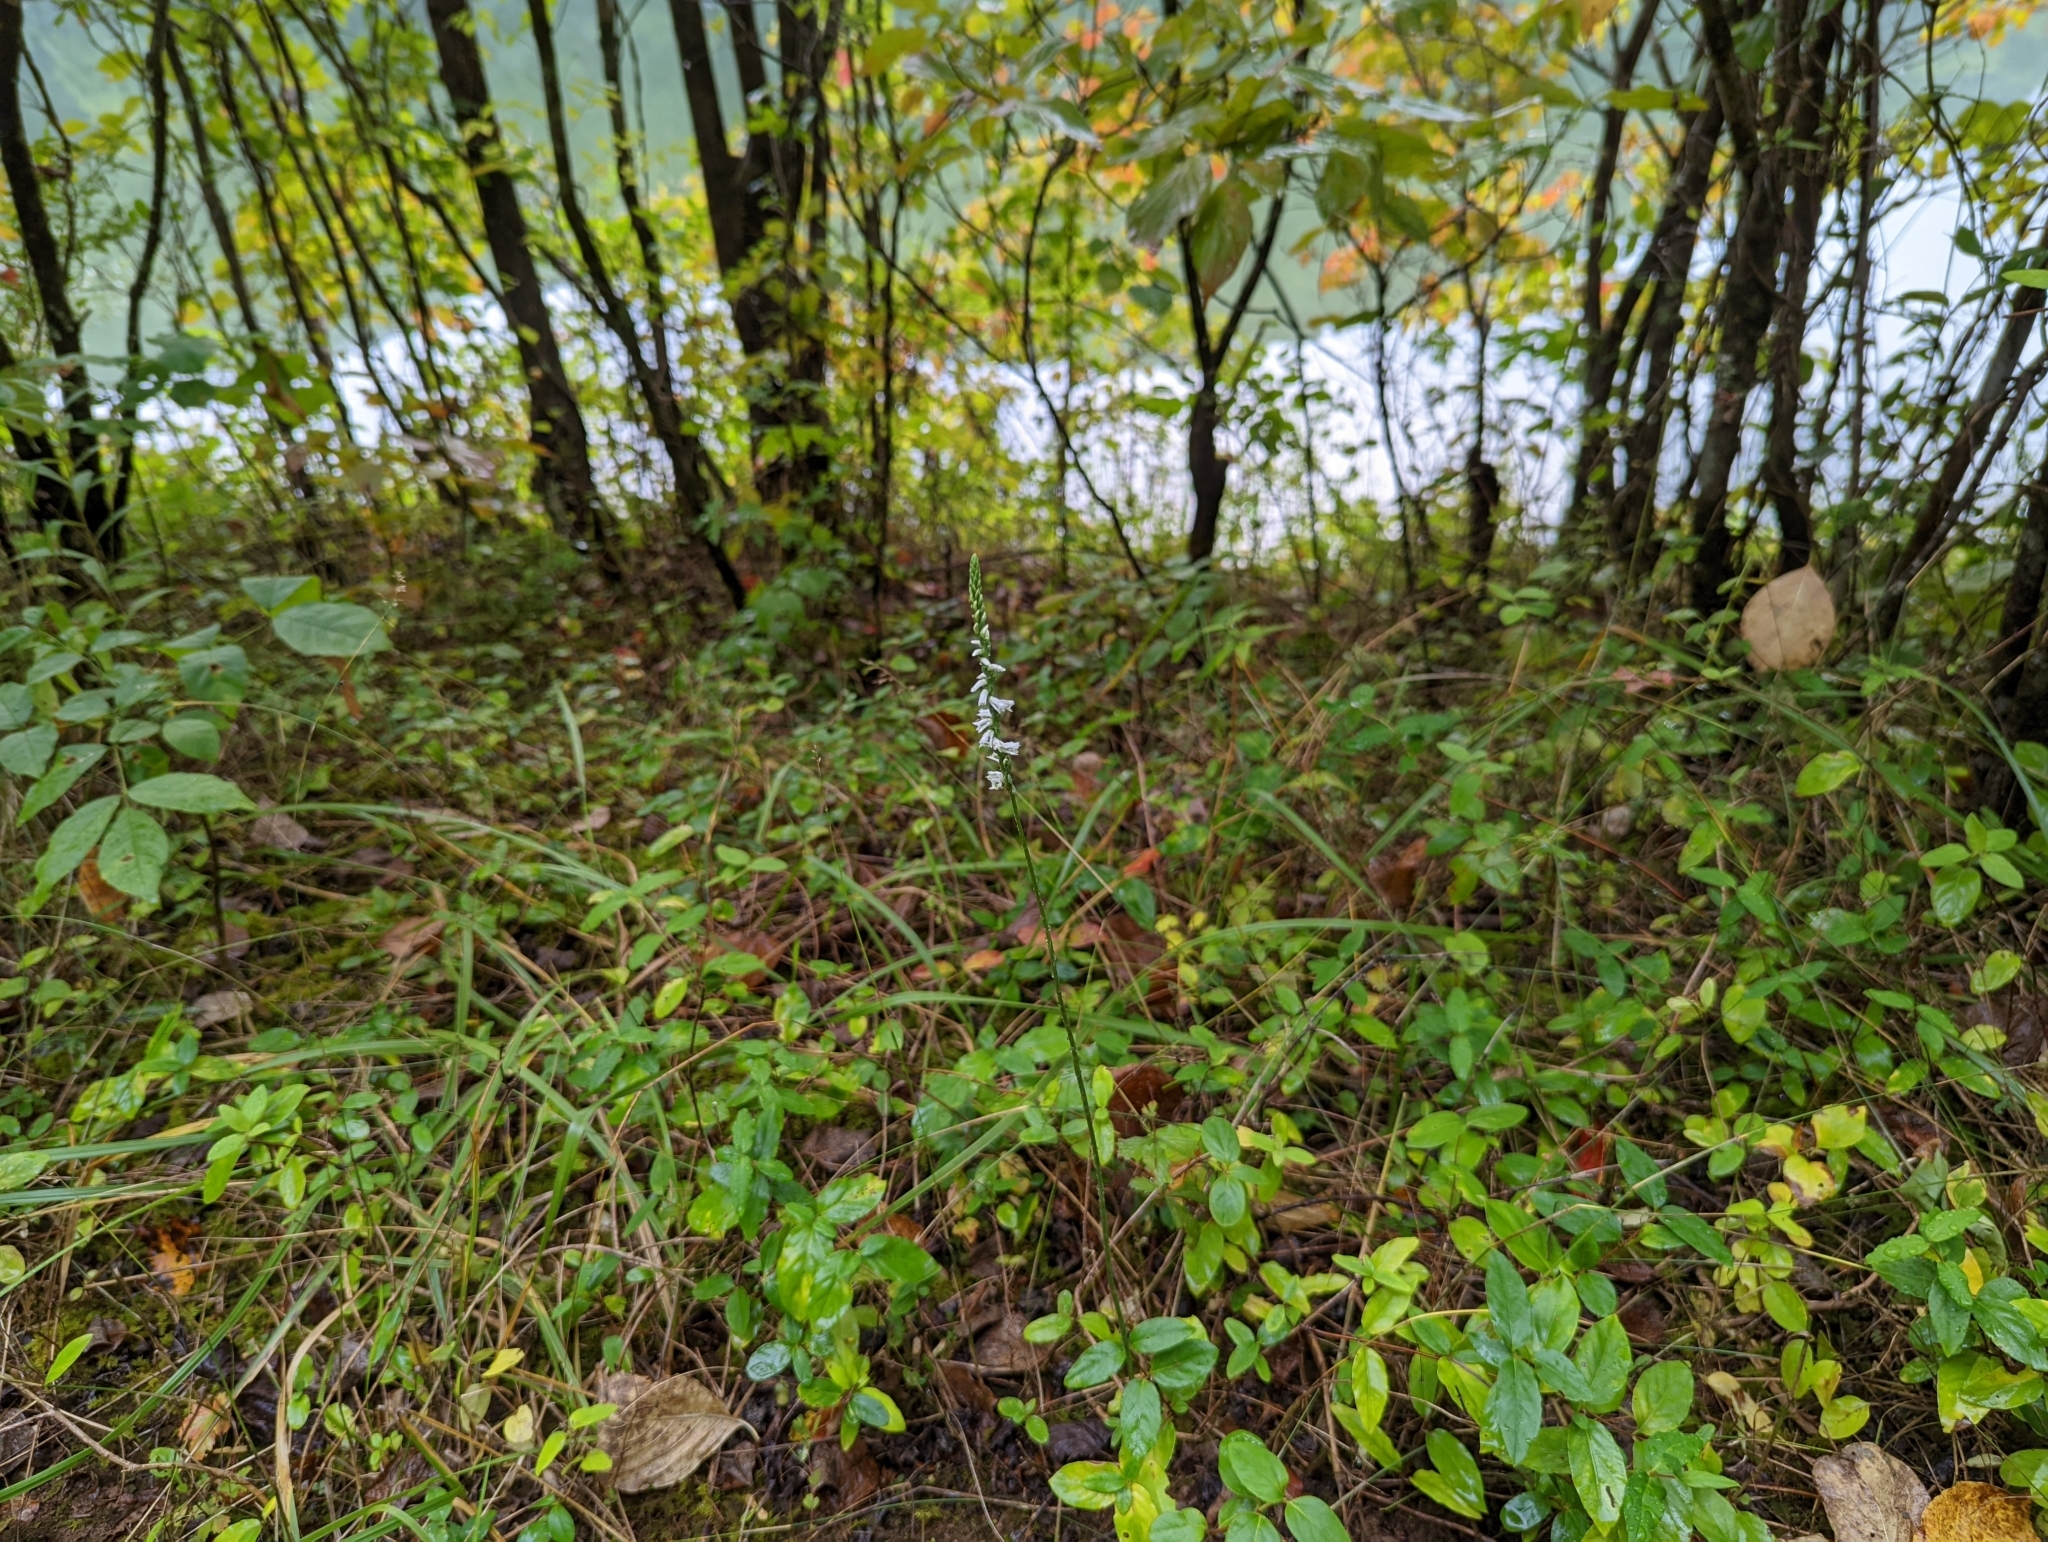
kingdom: Plantae
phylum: Tracheophyta
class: Liliopsida
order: Asparagales
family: Orchidaceae
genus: Spiranthes
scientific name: Spiranthes lacera
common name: Northern slender ladies'-tresses
